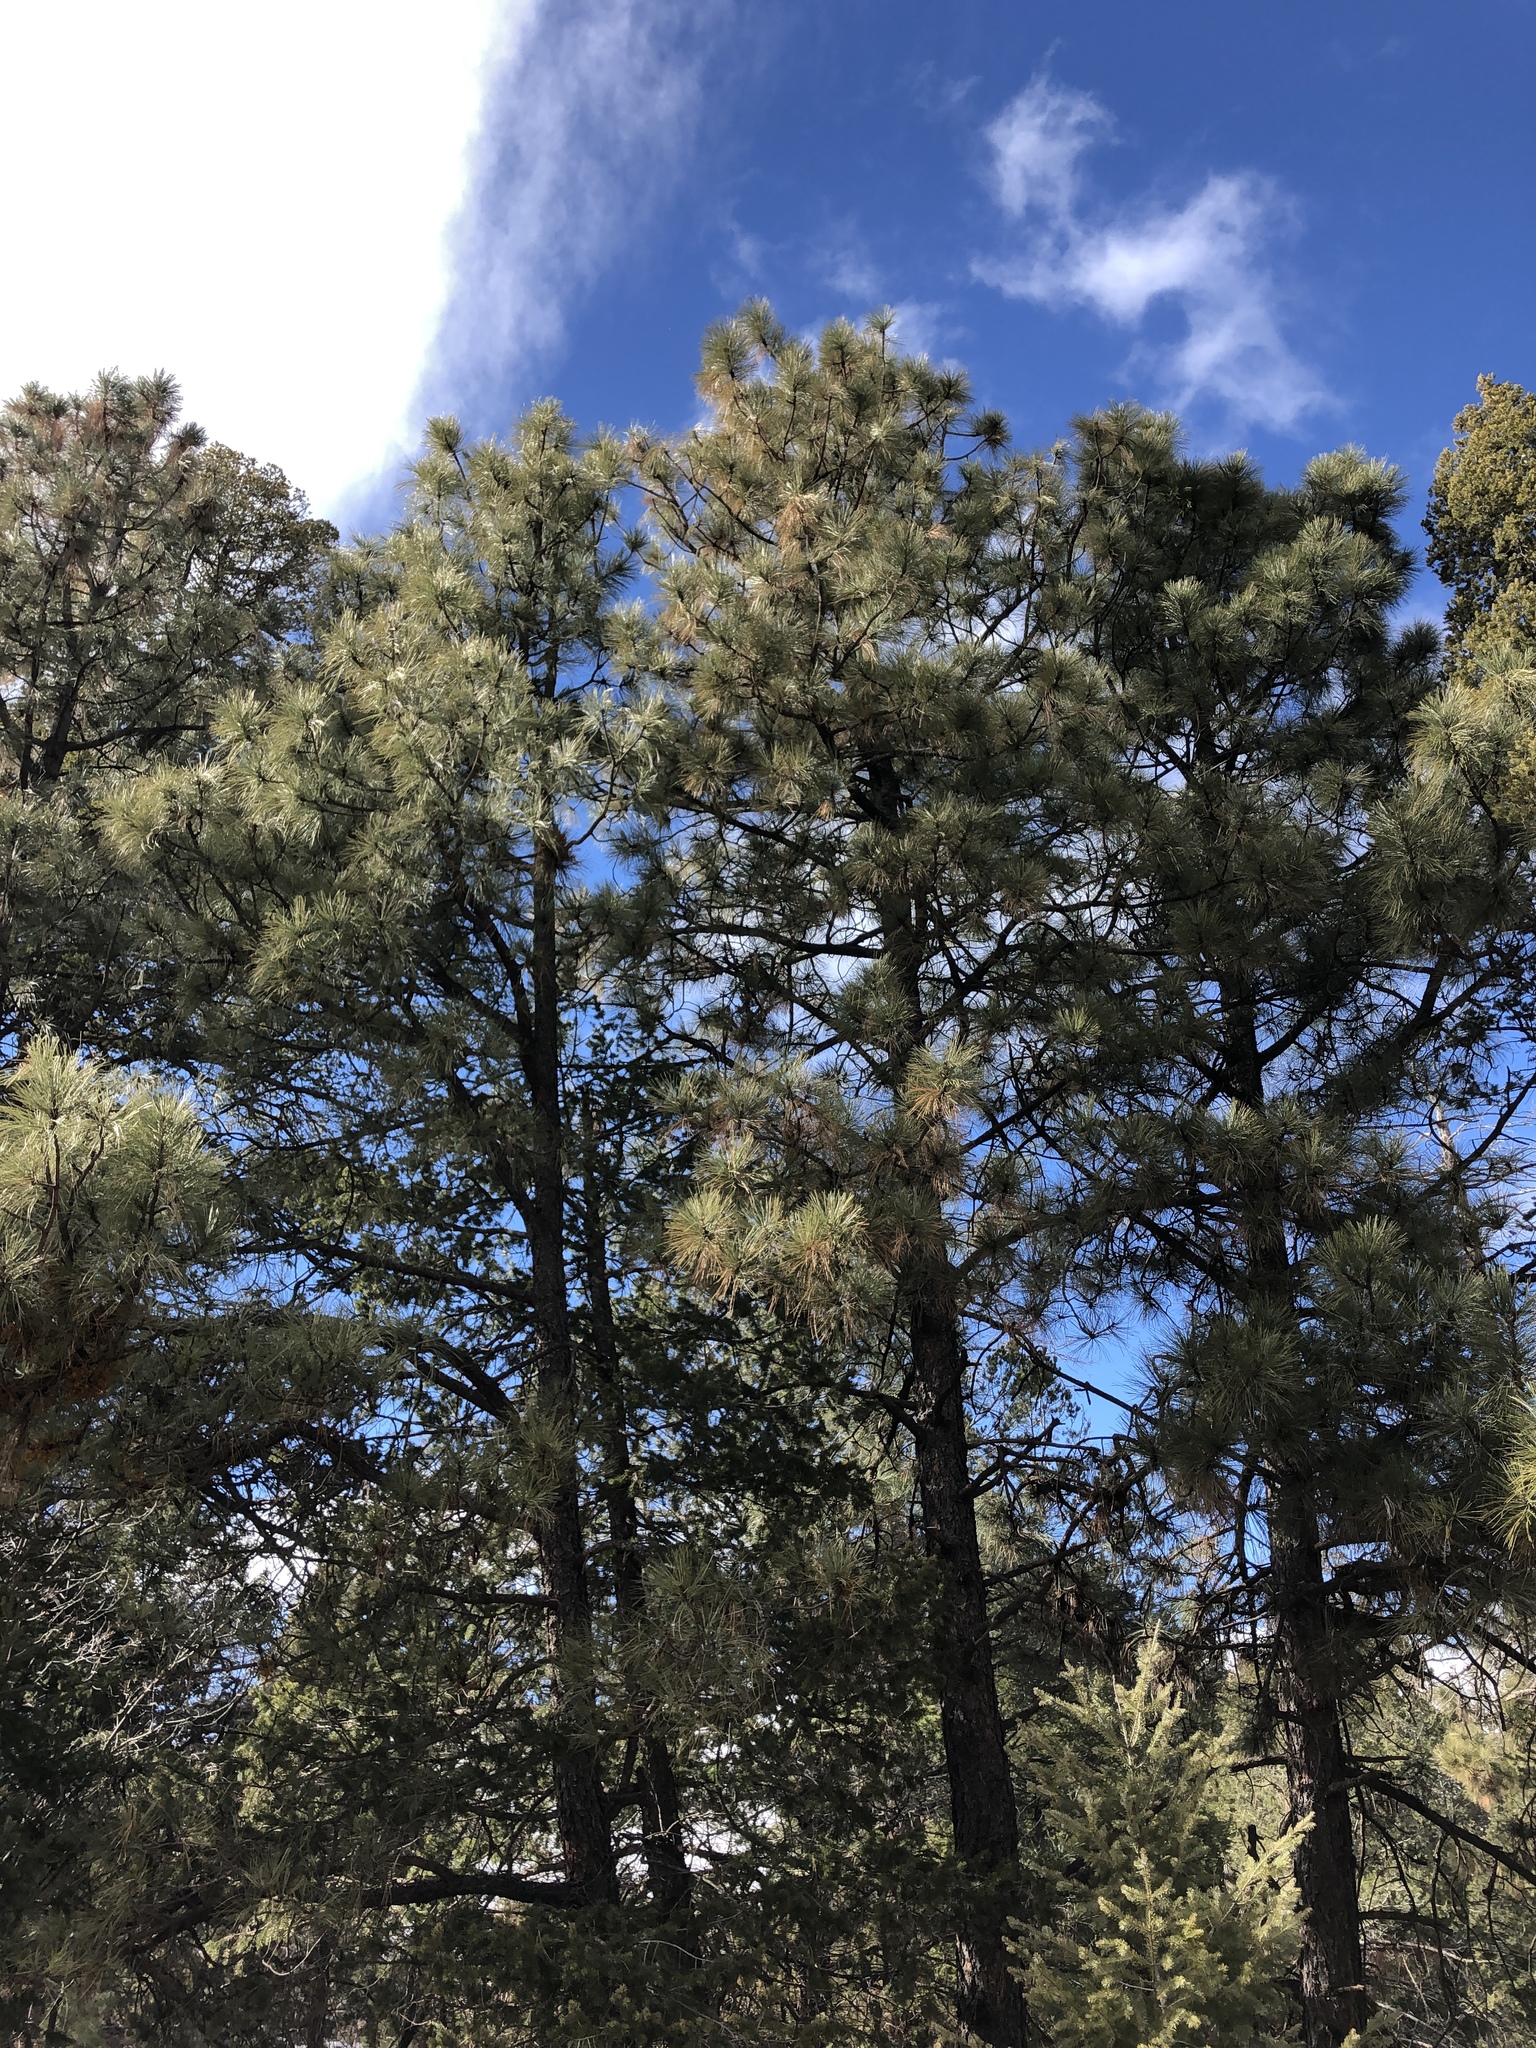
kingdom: Plantae
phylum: Tracheophyta
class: Pinopsida
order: Pinales
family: Pinaceae
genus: Pinus
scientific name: Pinus ponderosa
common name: Western yellow-pine
